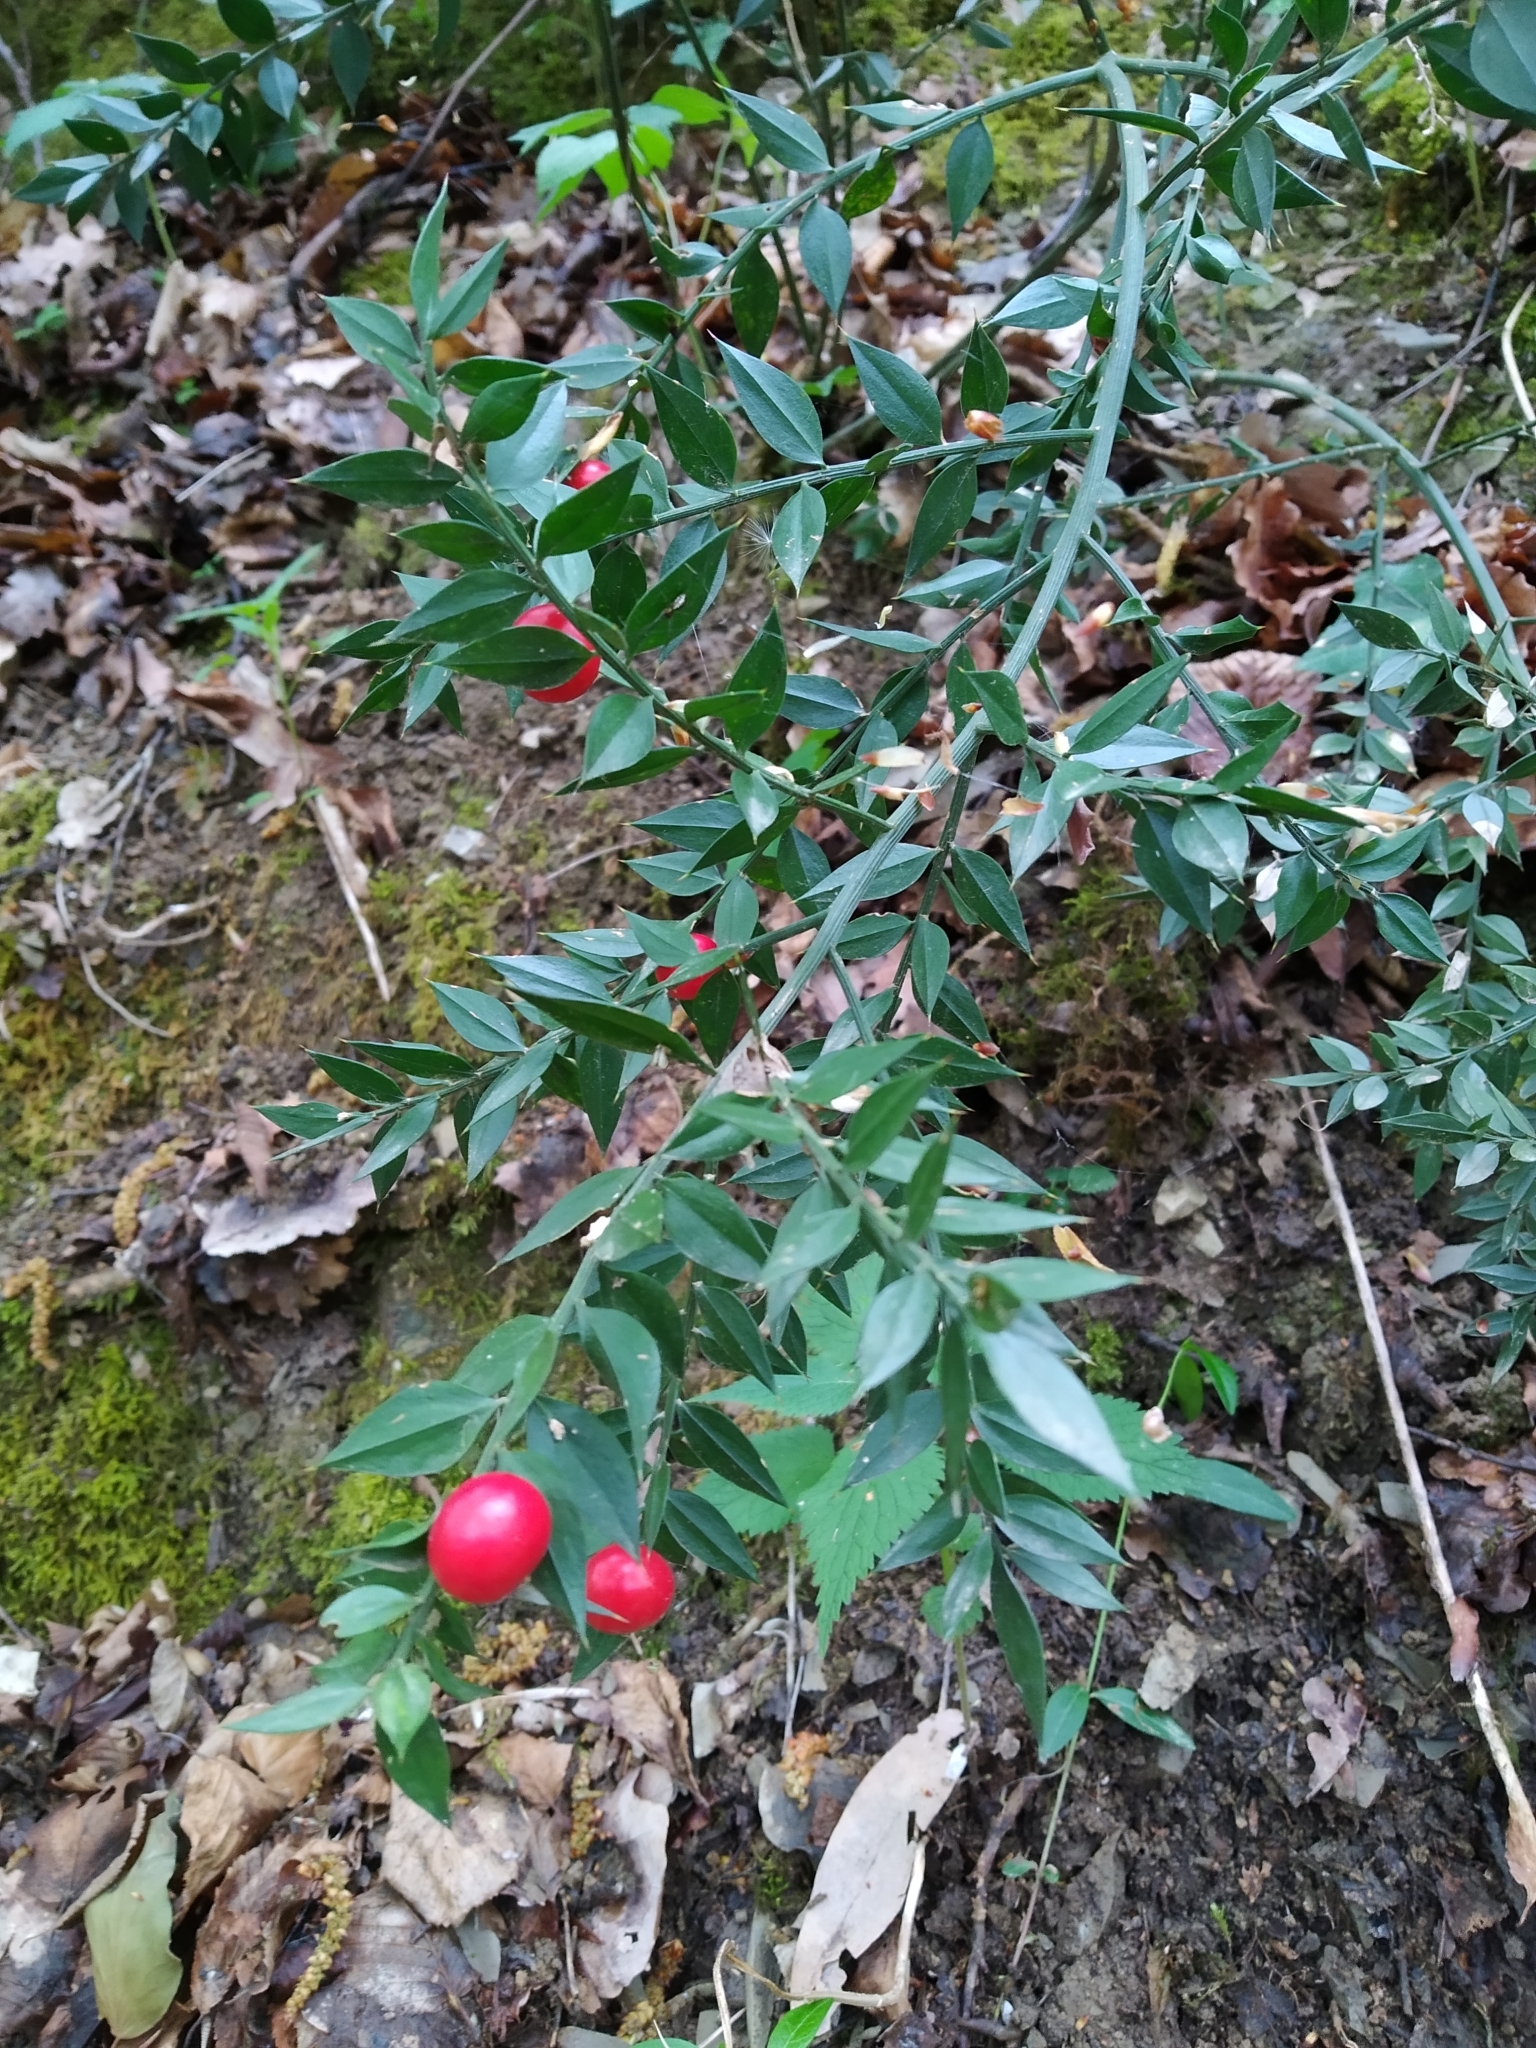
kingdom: Plantae
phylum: Tracheophyta
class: Liliopsida
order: Asparagales
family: Asparagaceae
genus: Ruscus
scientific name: Ruscus aculeatus
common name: Butcher's-broom
